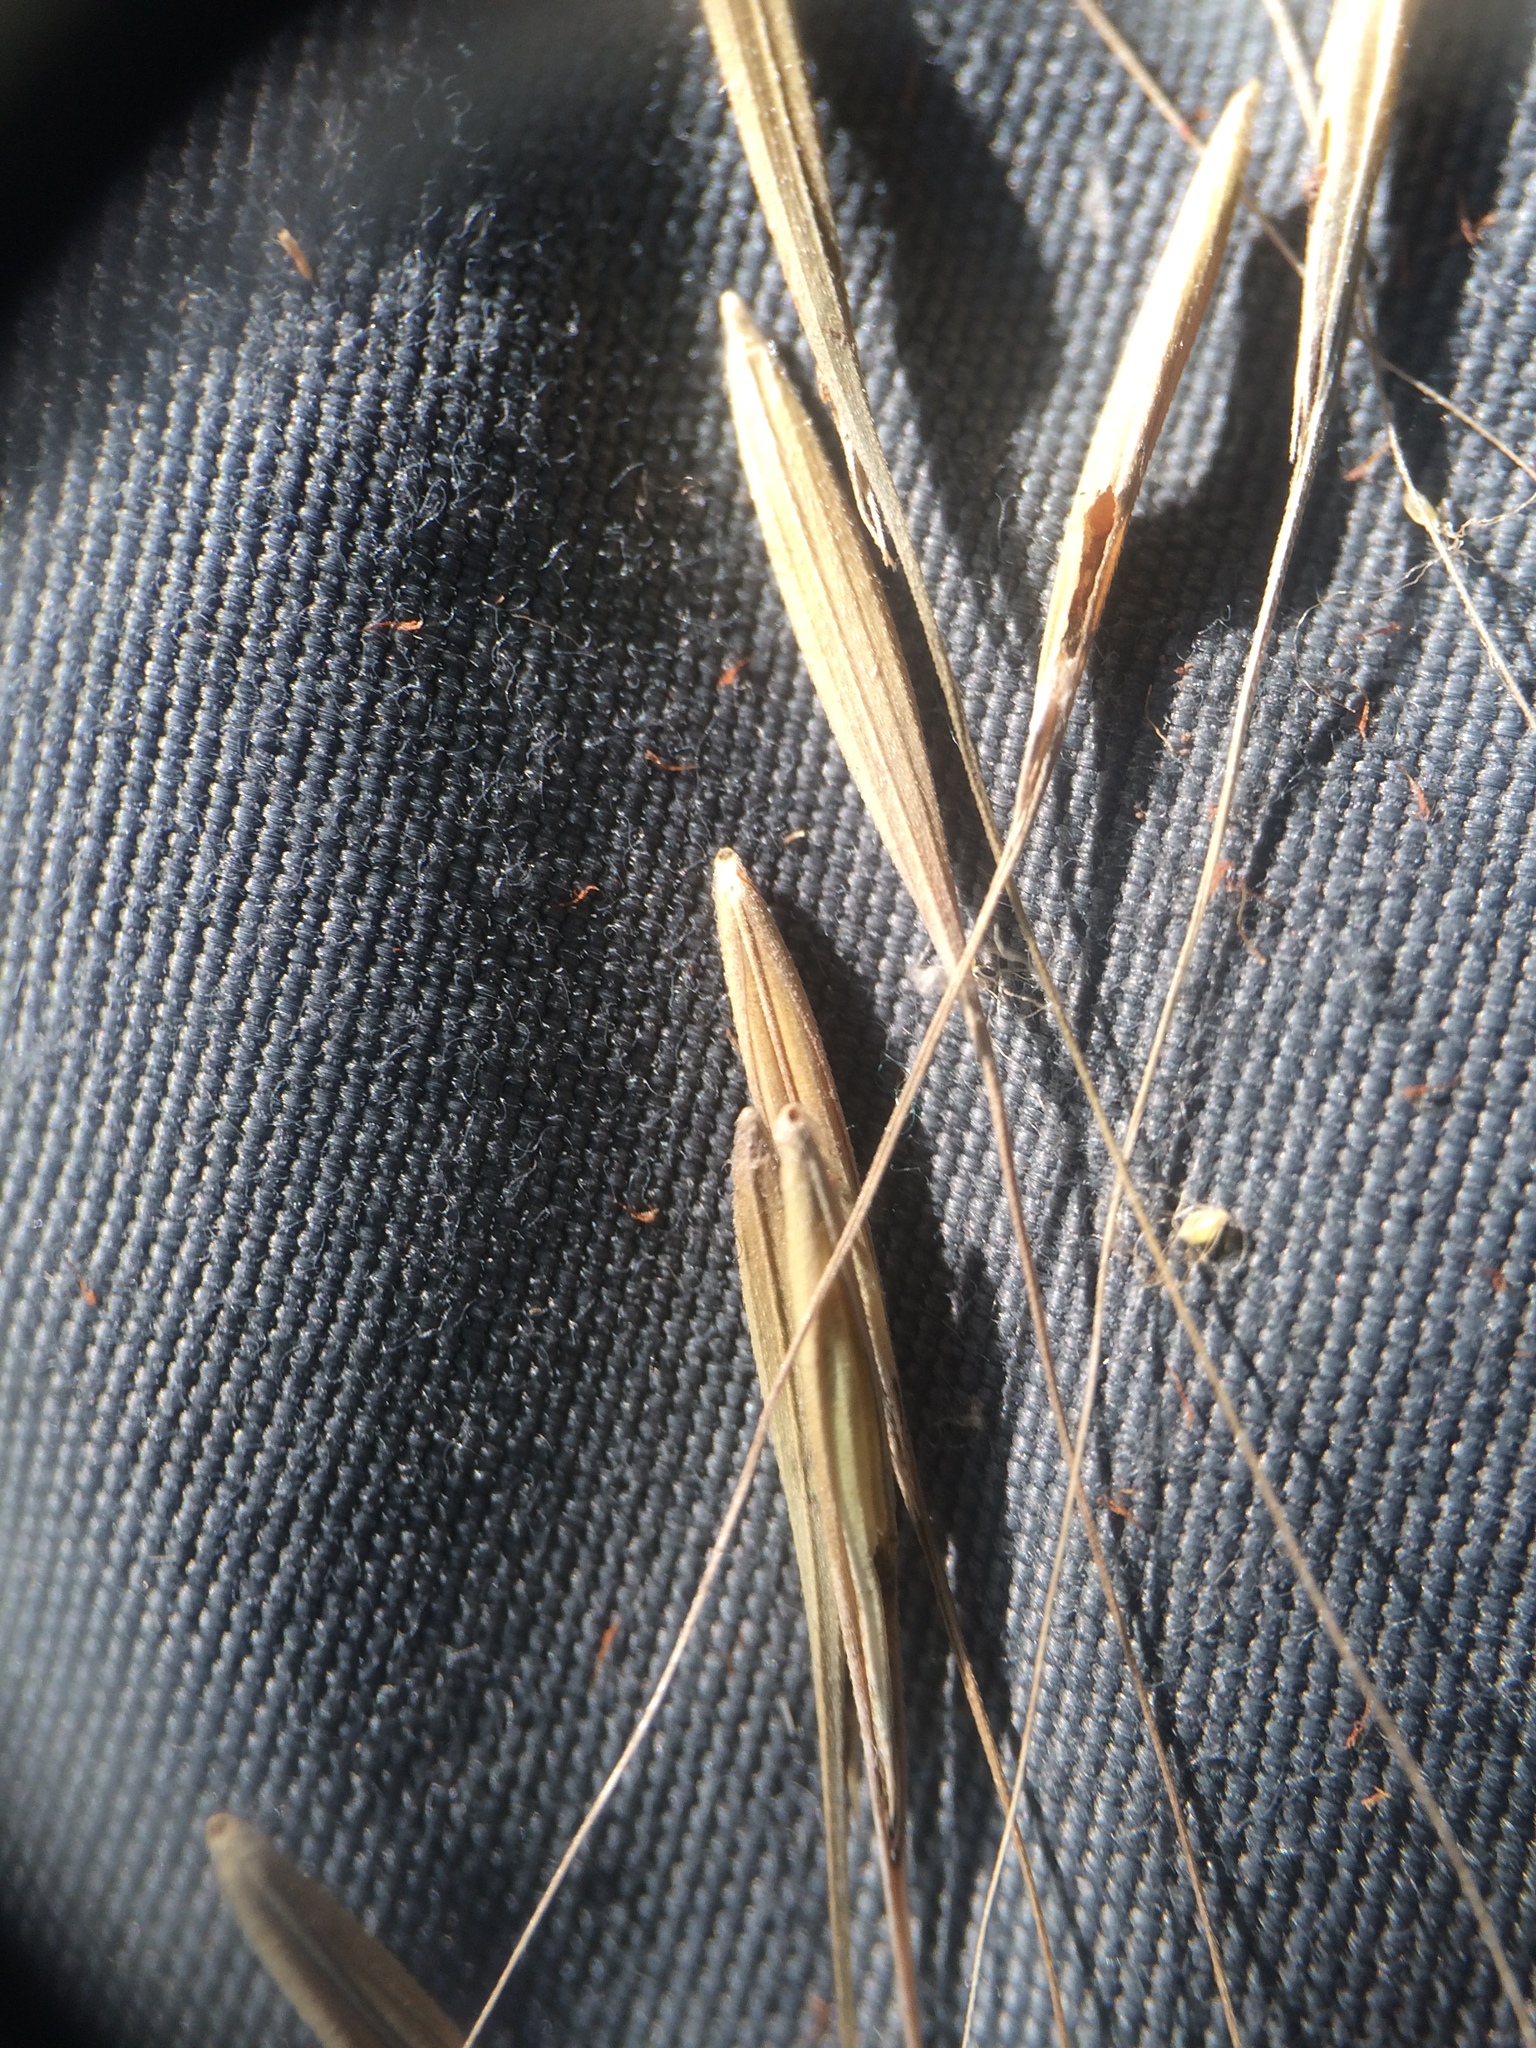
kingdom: Plantae
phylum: Tracheophyta
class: Liliopsida
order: Poales
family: Poaceae
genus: Brachyelytrum
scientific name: Brachyelytrum aristosum
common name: Northern shorthusk
